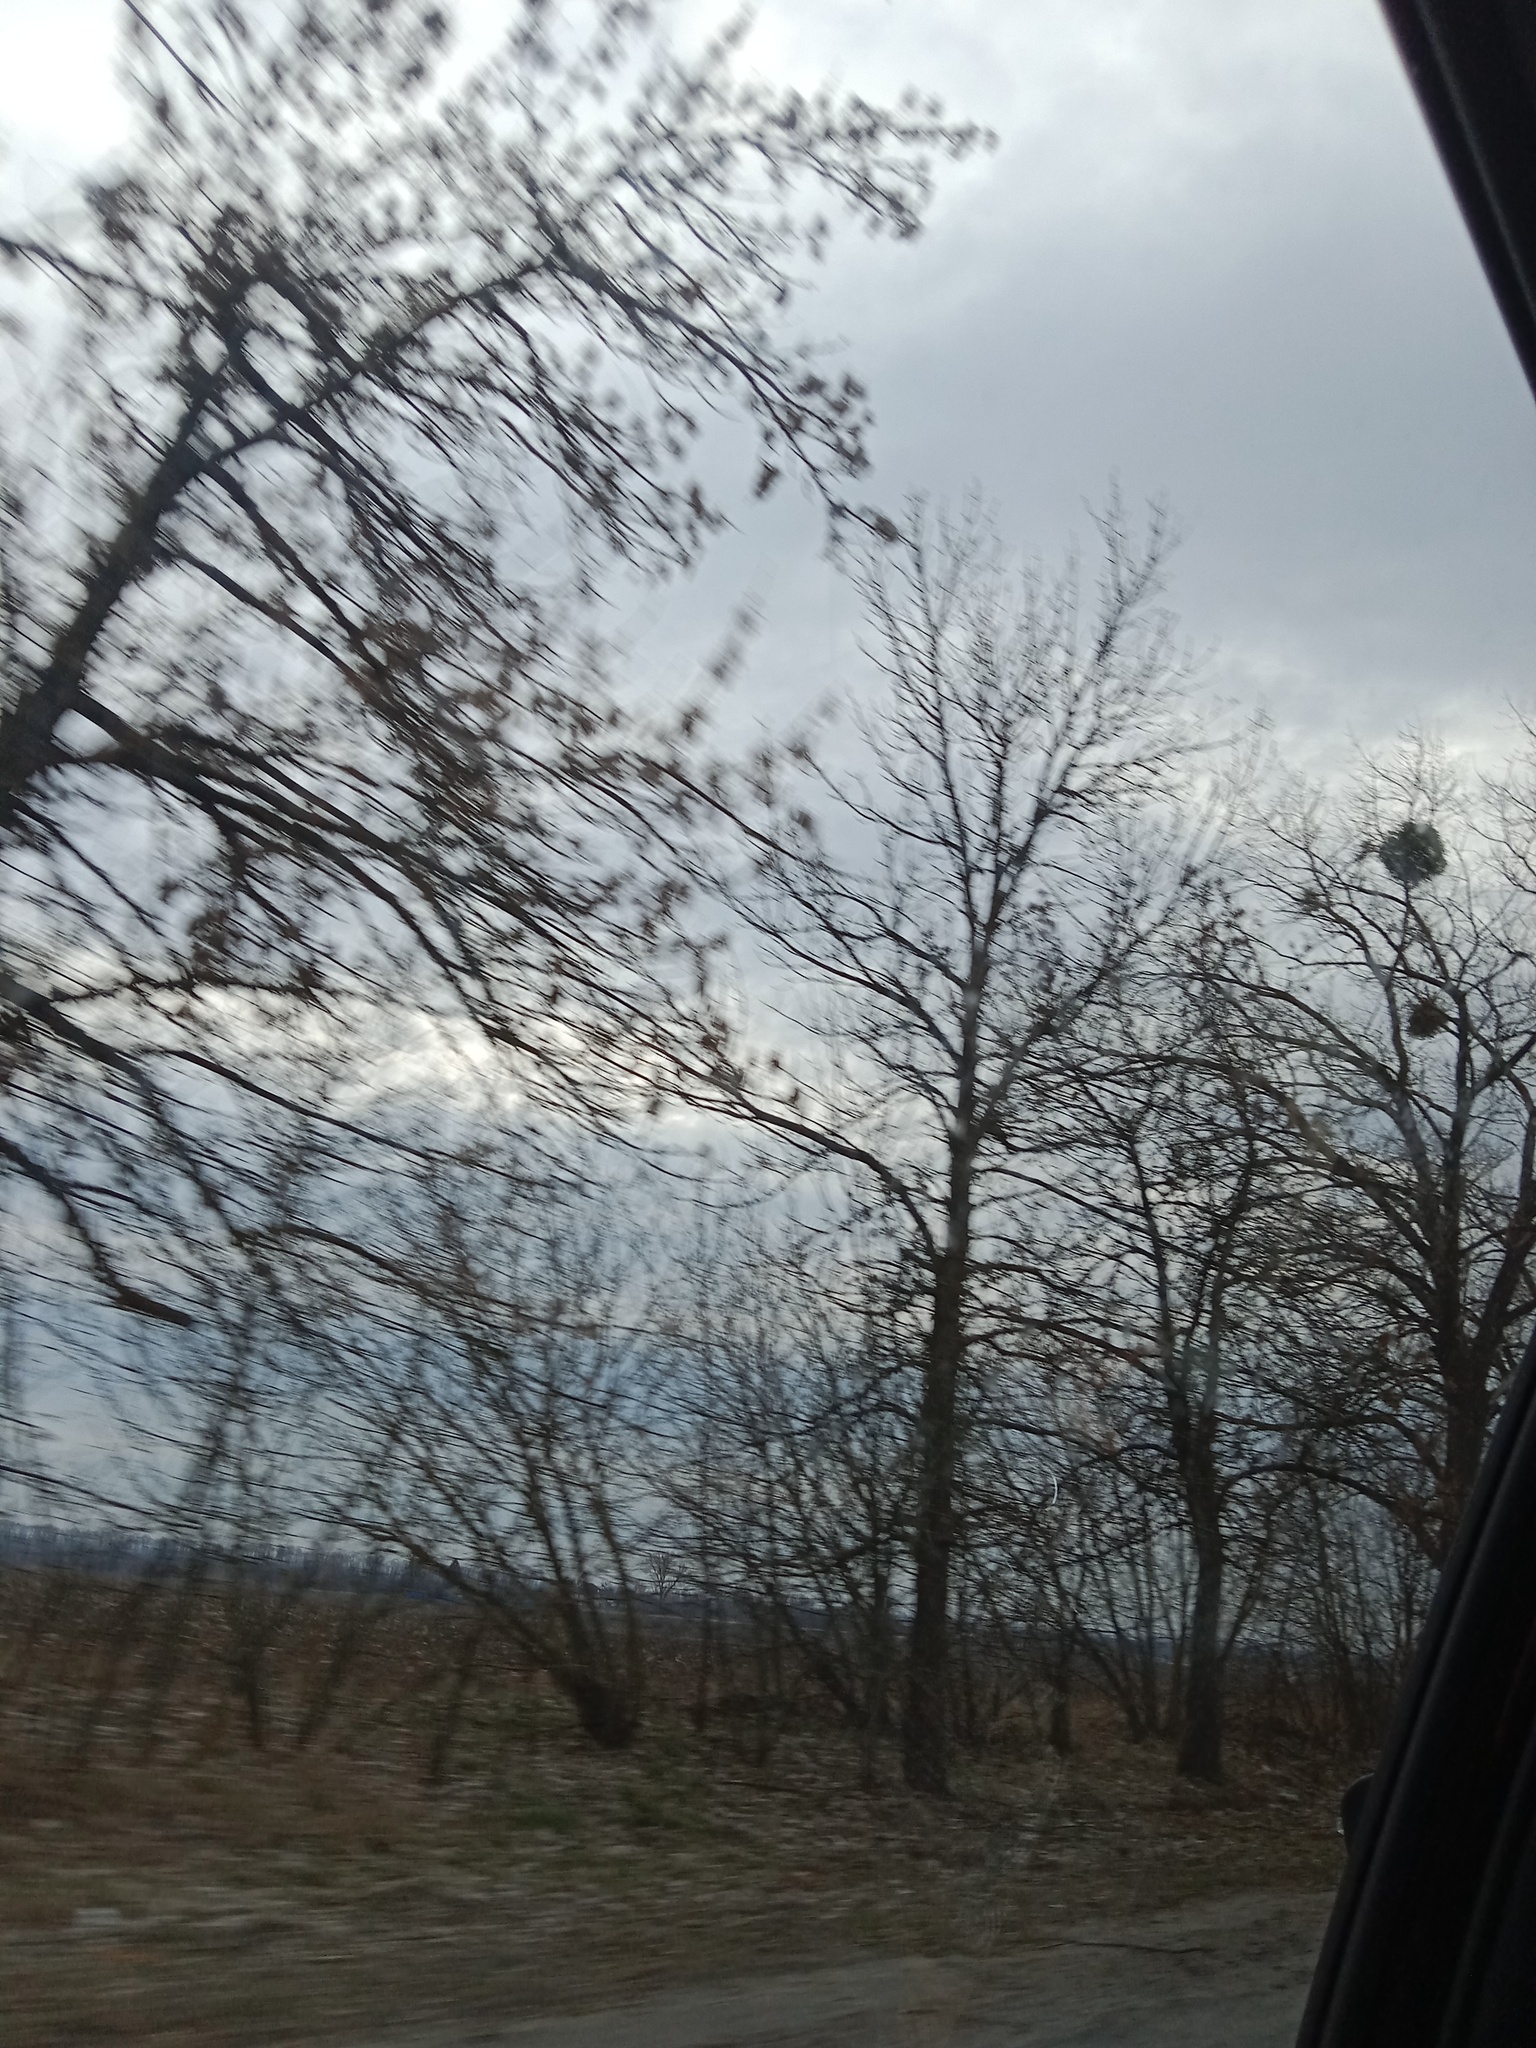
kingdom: Plantae
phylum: Tracheophyta
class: Magnoliopsida
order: Santalales
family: Viscaceae
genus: Viscum
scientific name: Viscum album
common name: Mistletoe
